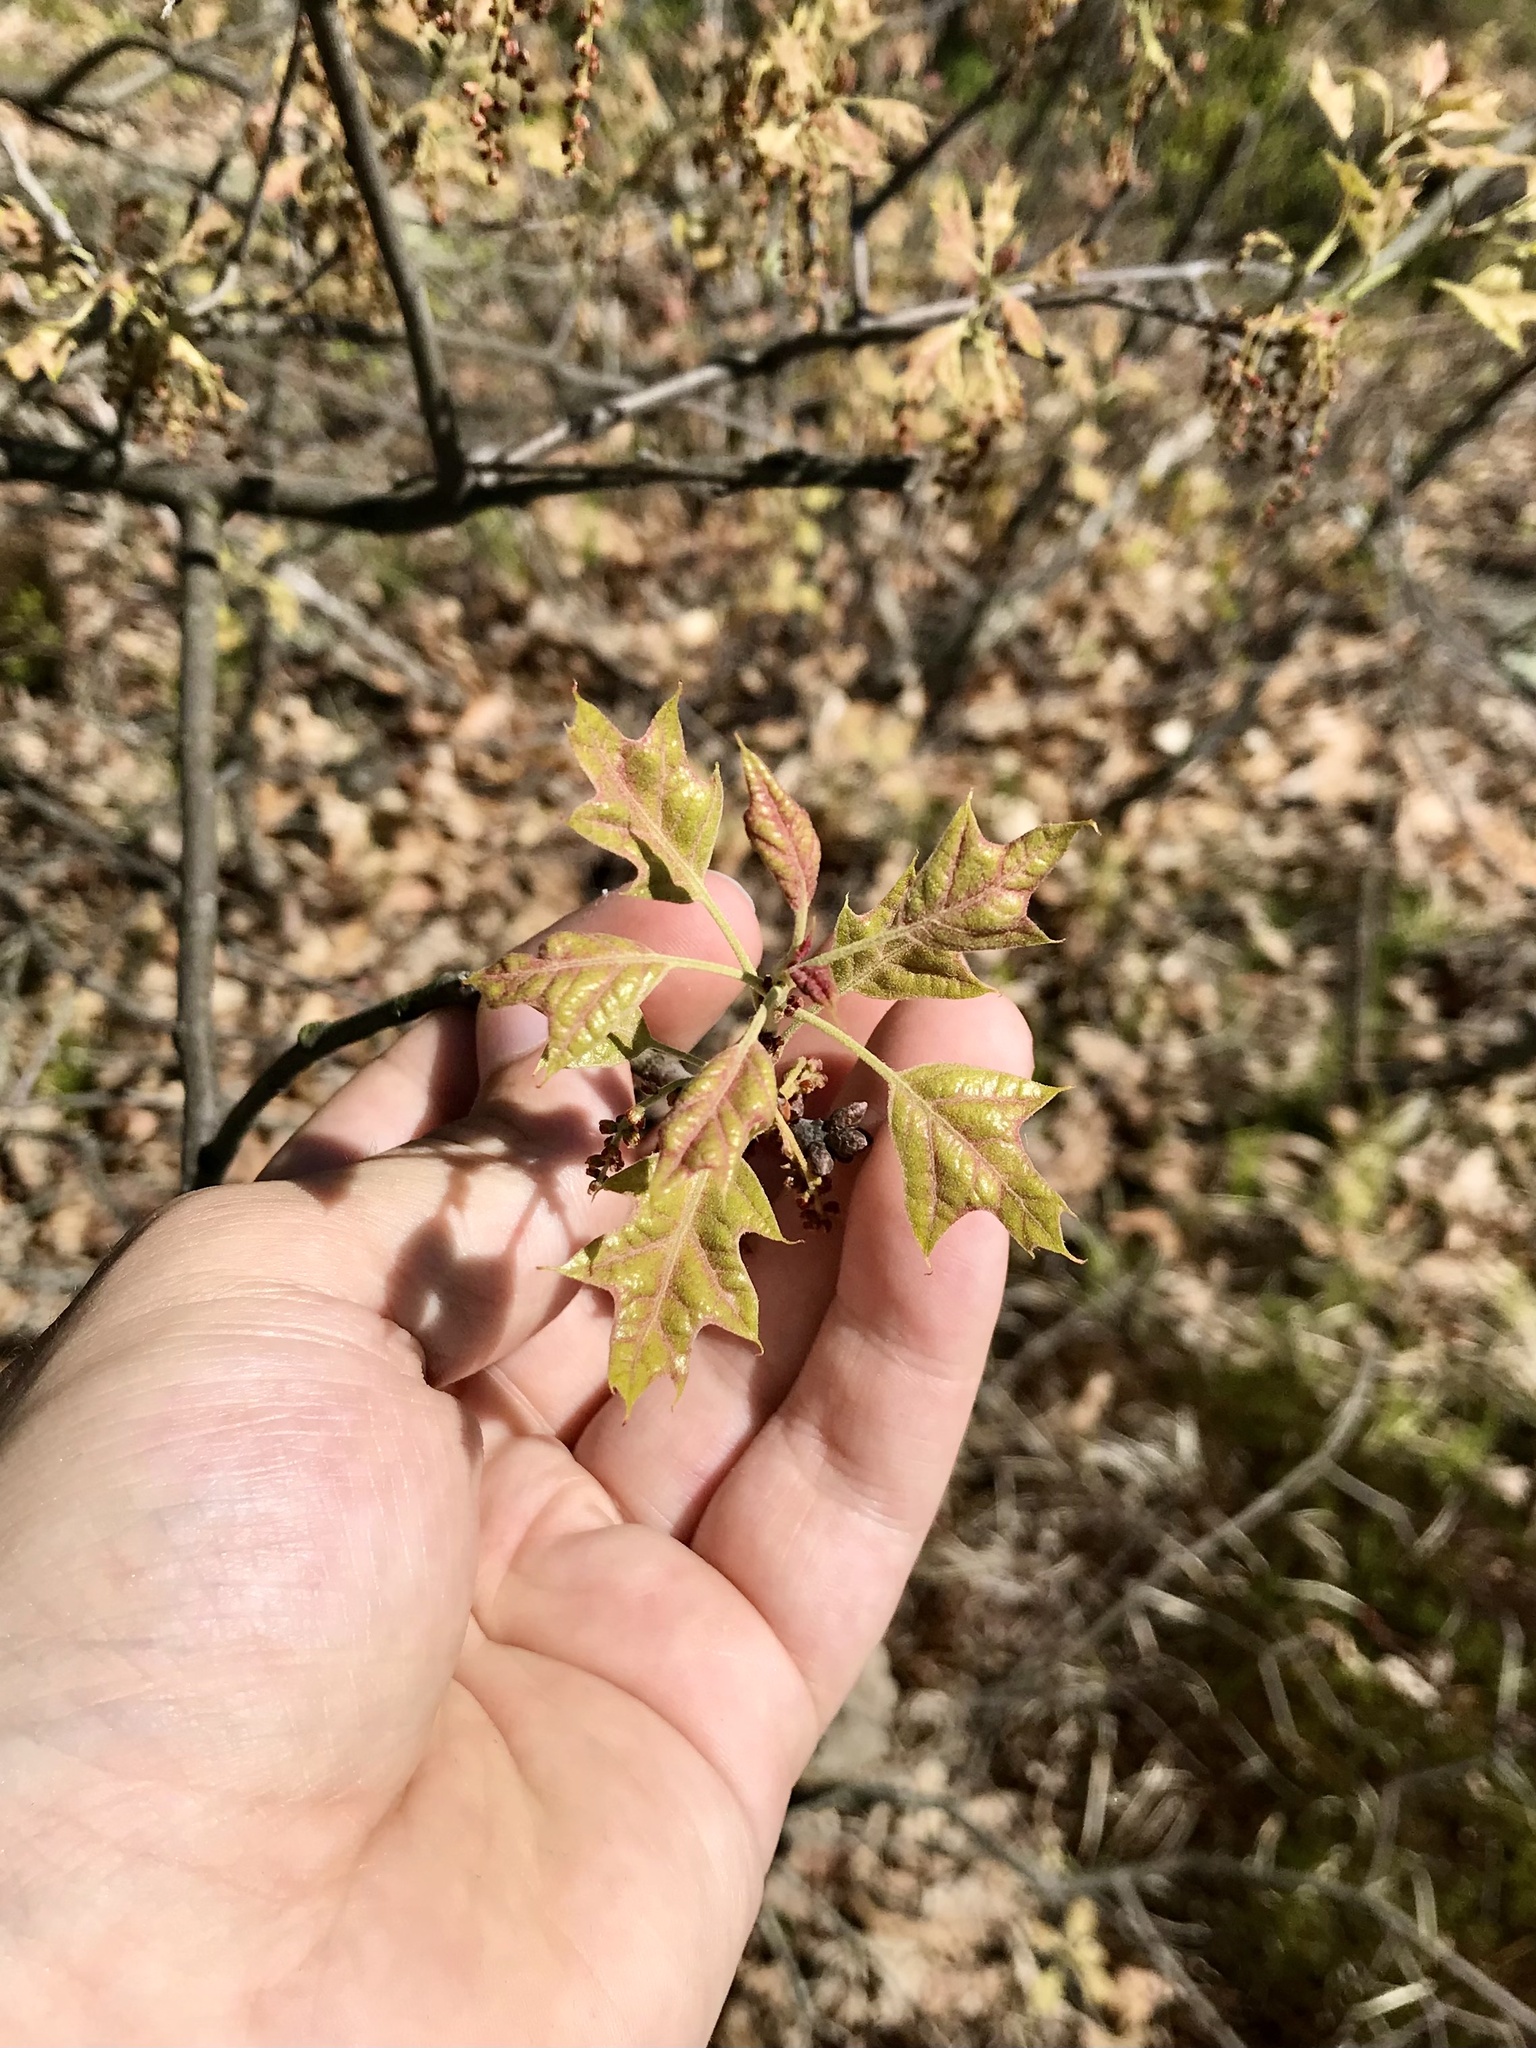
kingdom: Plantae
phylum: Tracheophyta
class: Magnoliopsida
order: Fagales
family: Fagaceae
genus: Quercus
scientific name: Quercus ilicifolia
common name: Bear oak
